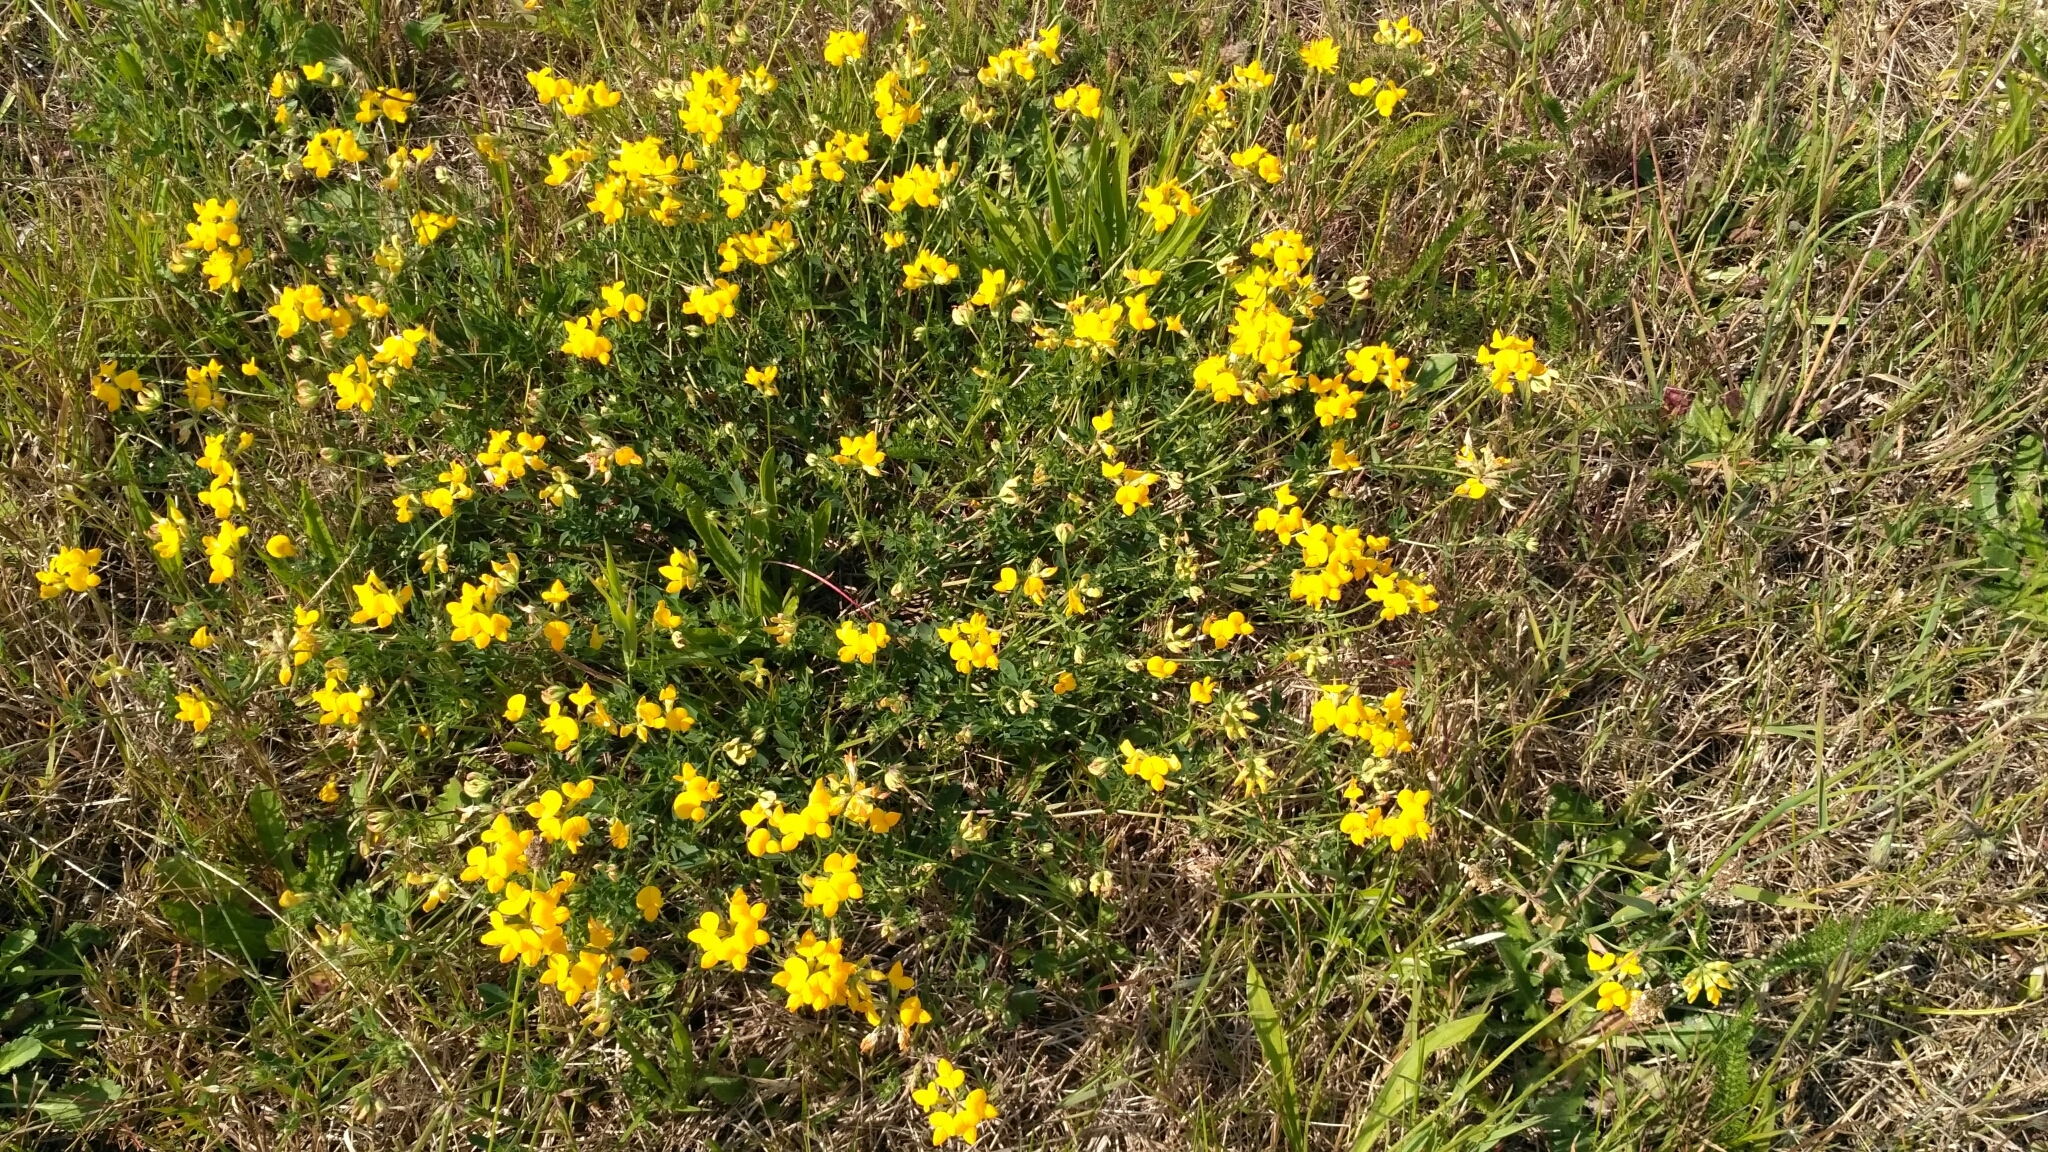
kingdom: Plantae
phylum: Tracheophyta
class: Magnoliopsida
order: Fabales
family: Fabaceae
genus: Lotus
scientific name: Lotus corniculatus
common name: Common bird's-foot-trefoil
